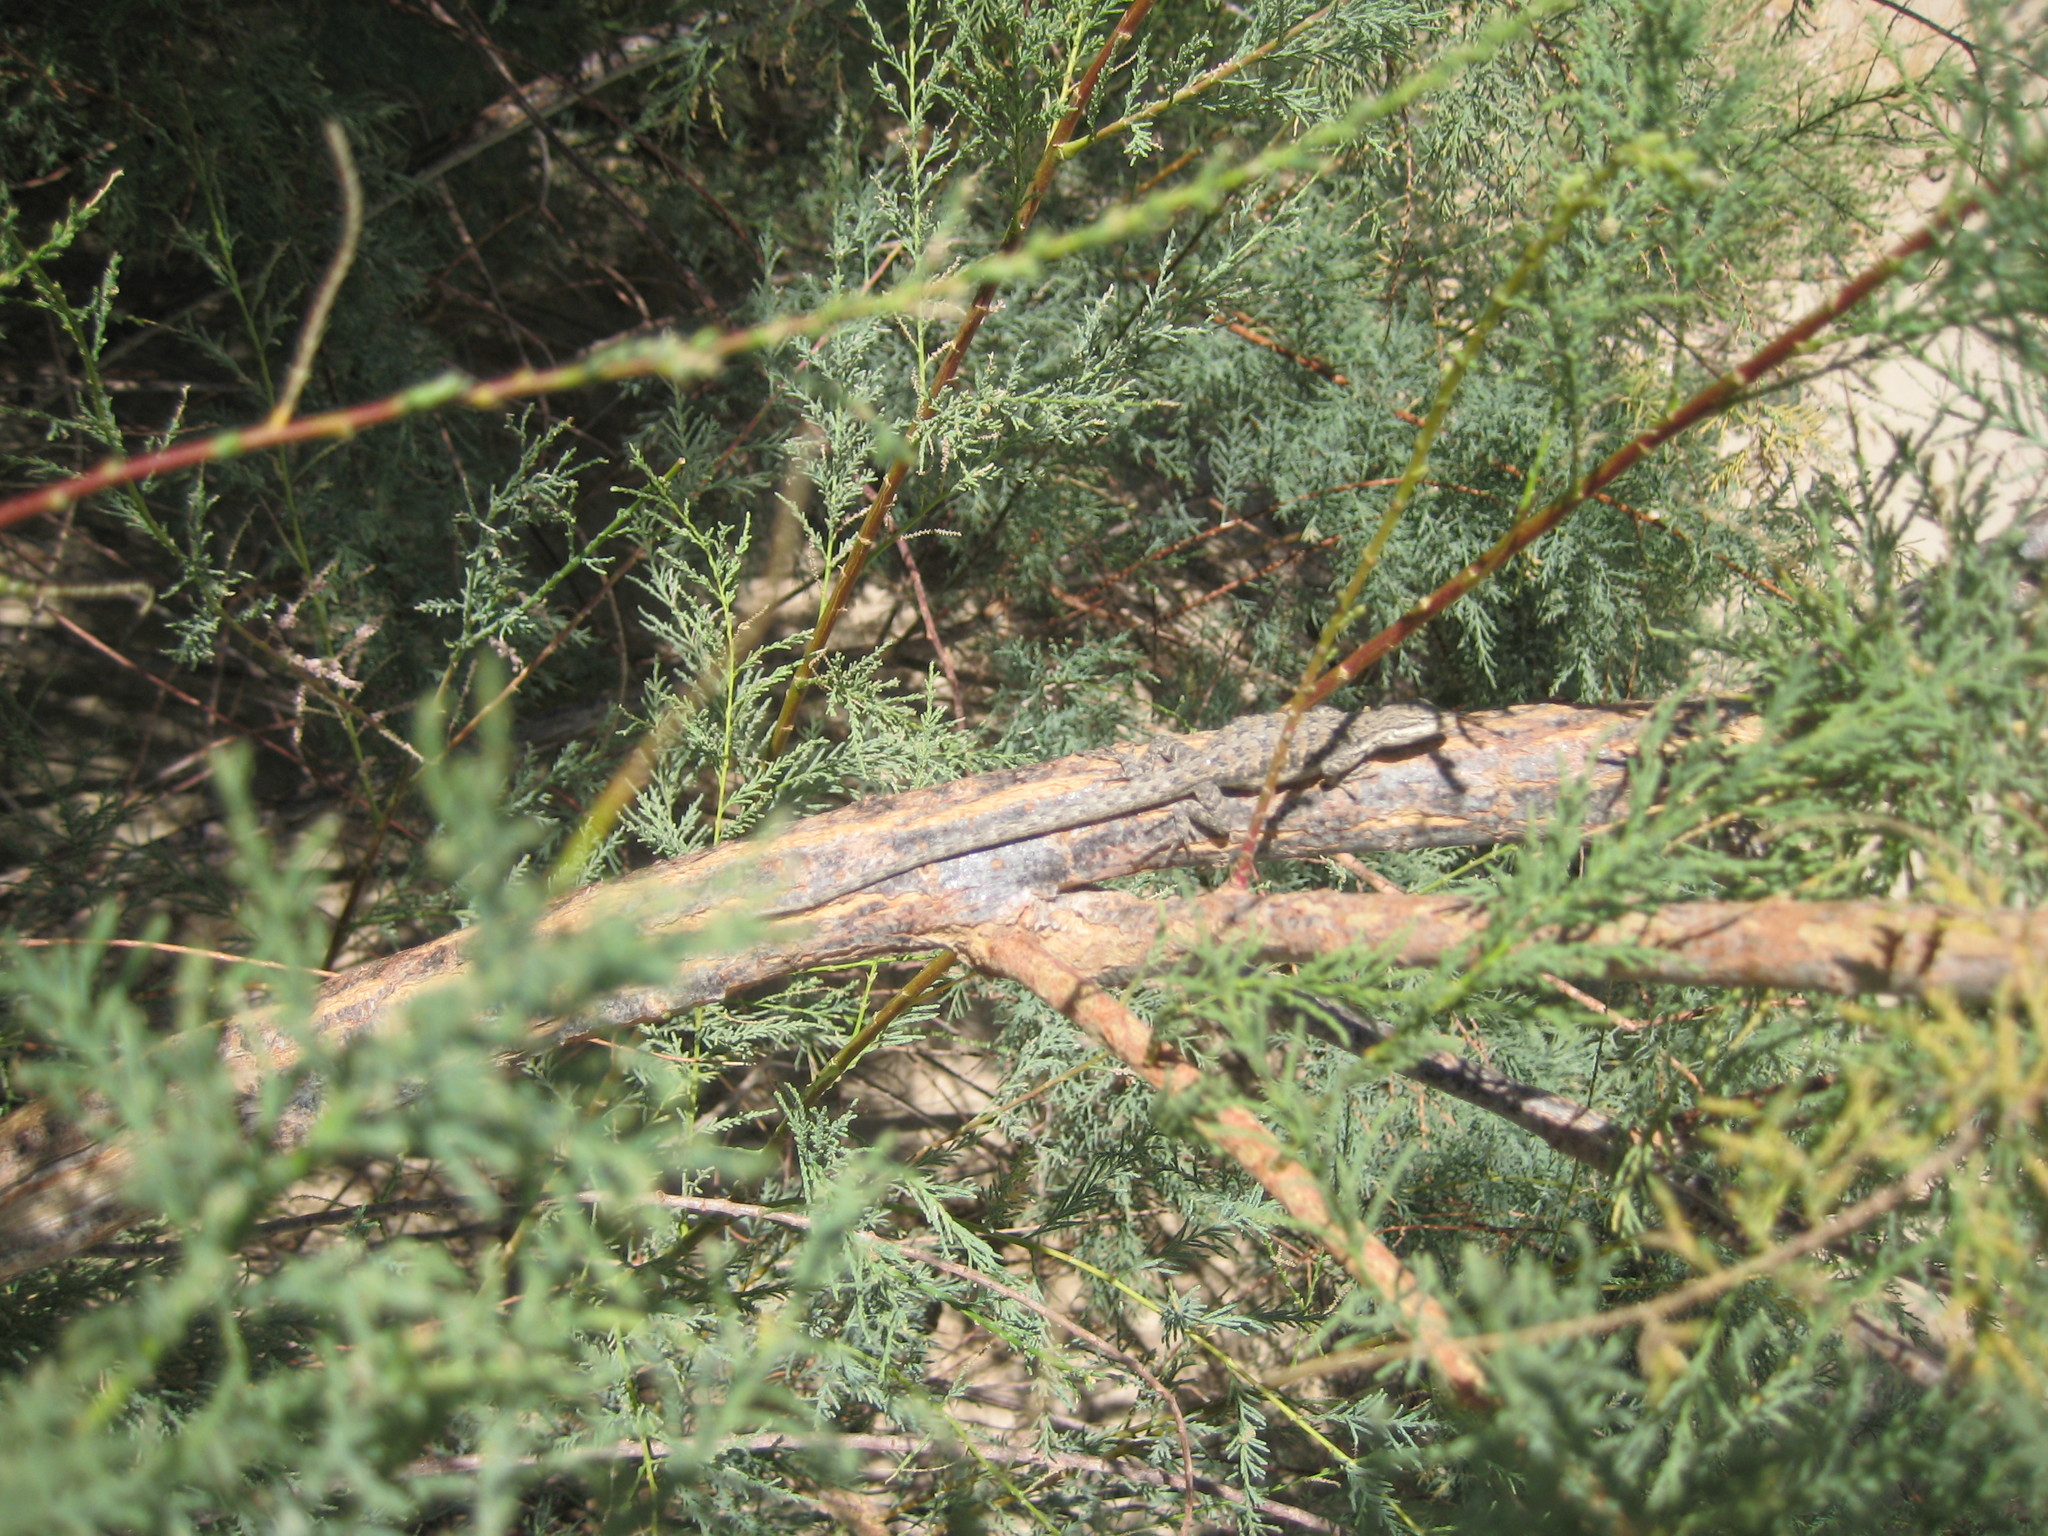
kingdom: Animalia
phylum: Chordata
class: Squamata
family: Phrynosomatidae
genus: Urosaurus
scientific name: Urosaurus graciosus
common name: Long-tailed brush lizard
